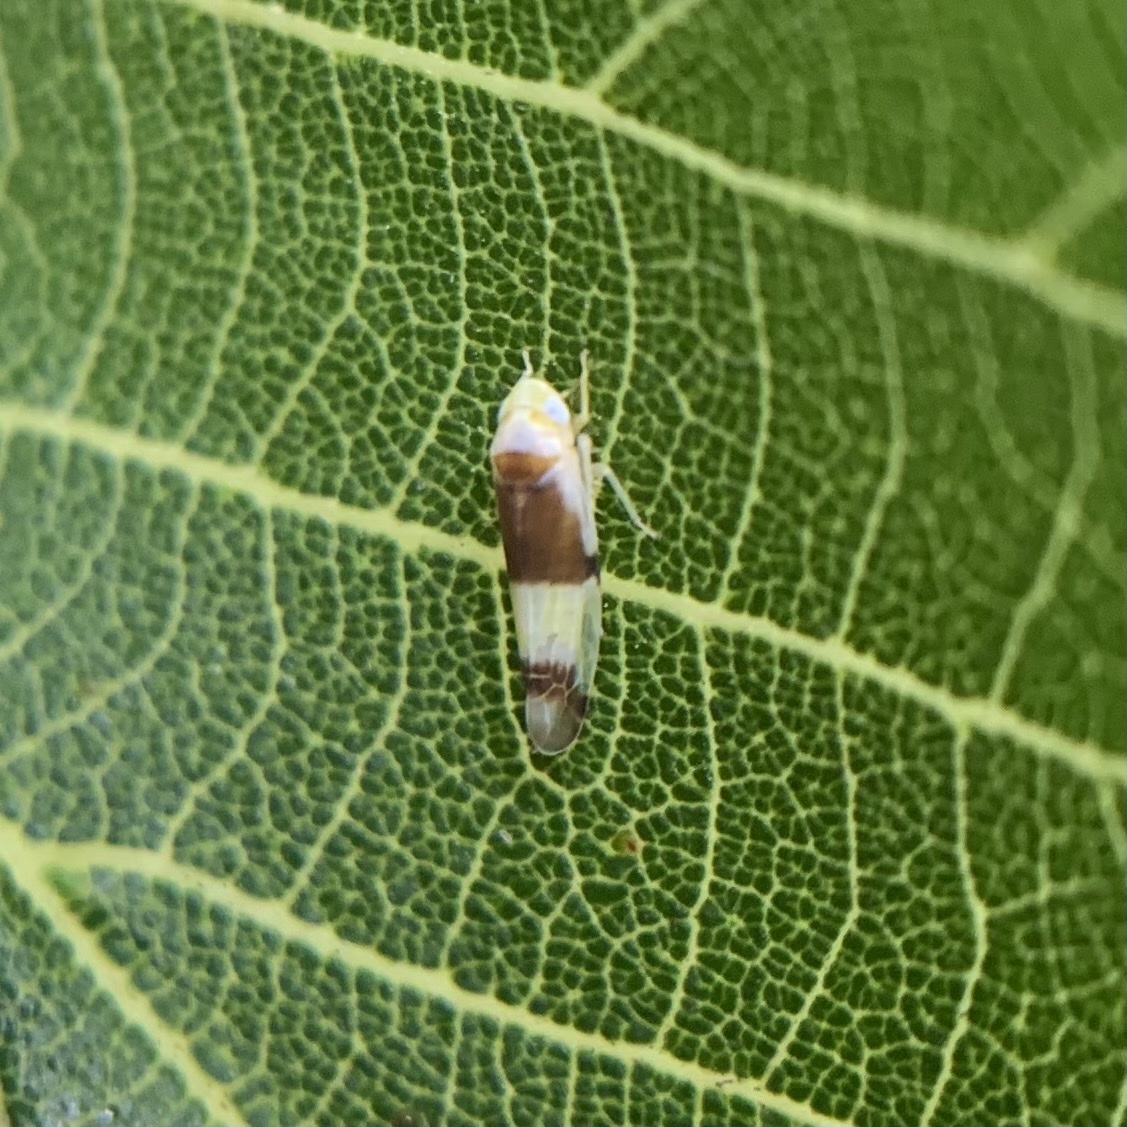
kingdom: Animalia
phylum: Arthropoda
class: Insecta
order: Hemiptera
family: Cicadellidae
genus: Empoa
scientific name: Empoa venusta
